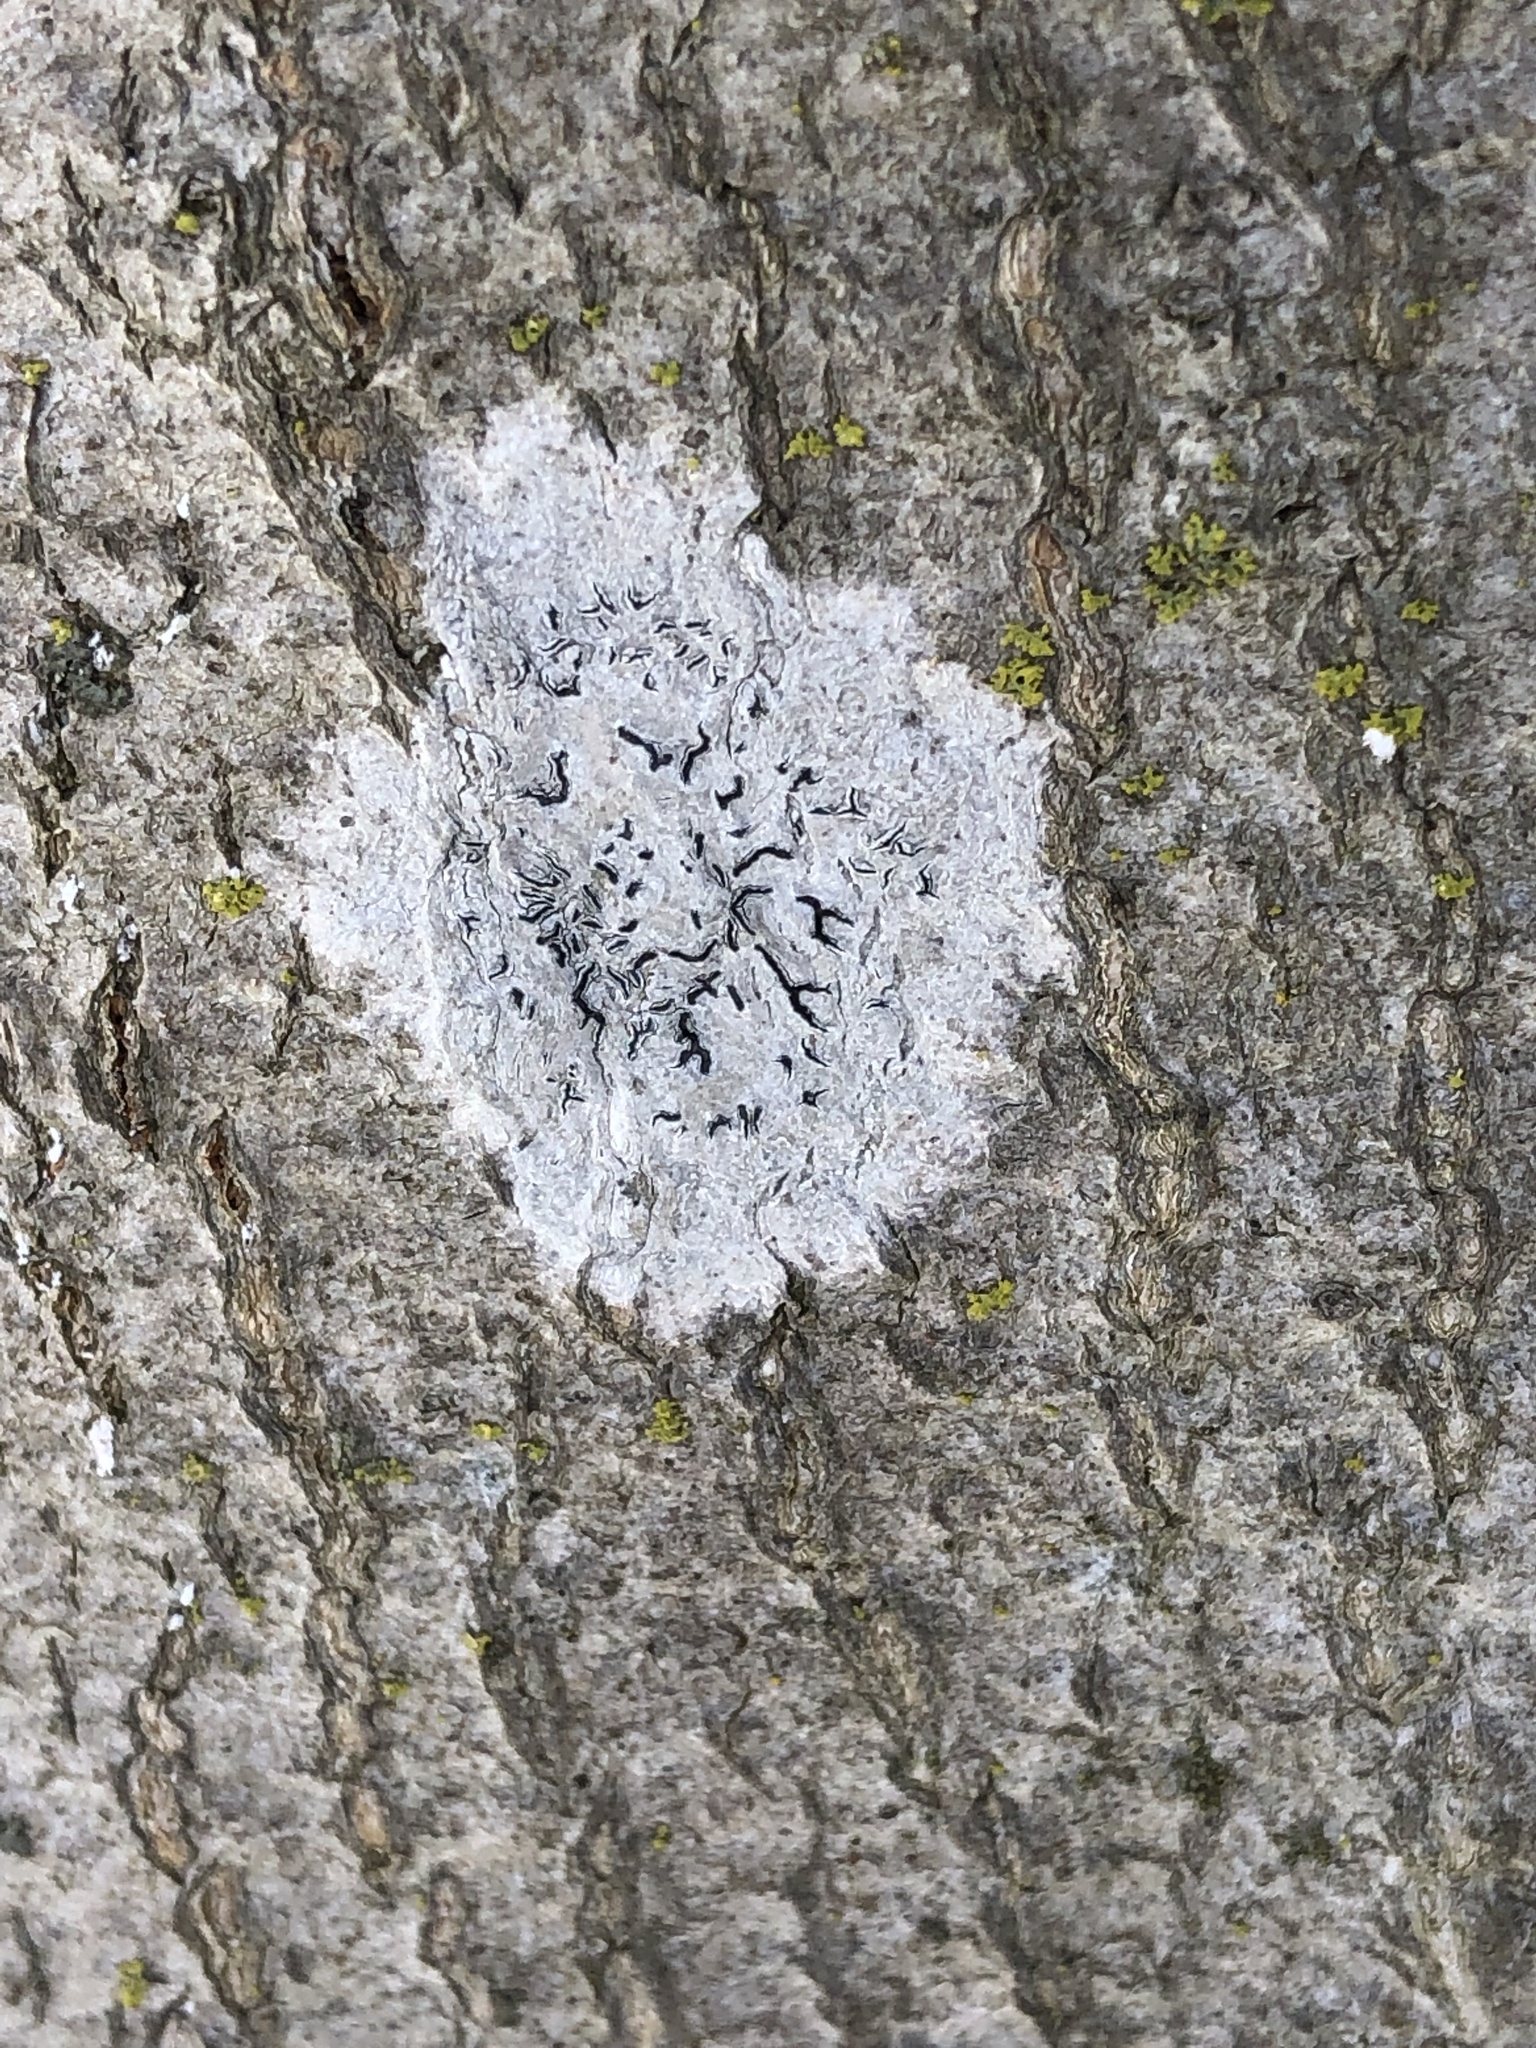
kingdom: Fungi
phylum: Ascomycota
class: Lecanoromycetes
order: Ostropales
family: Graphidaceae
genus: Graphis
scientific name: Graphis scripta
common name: Script lichen
